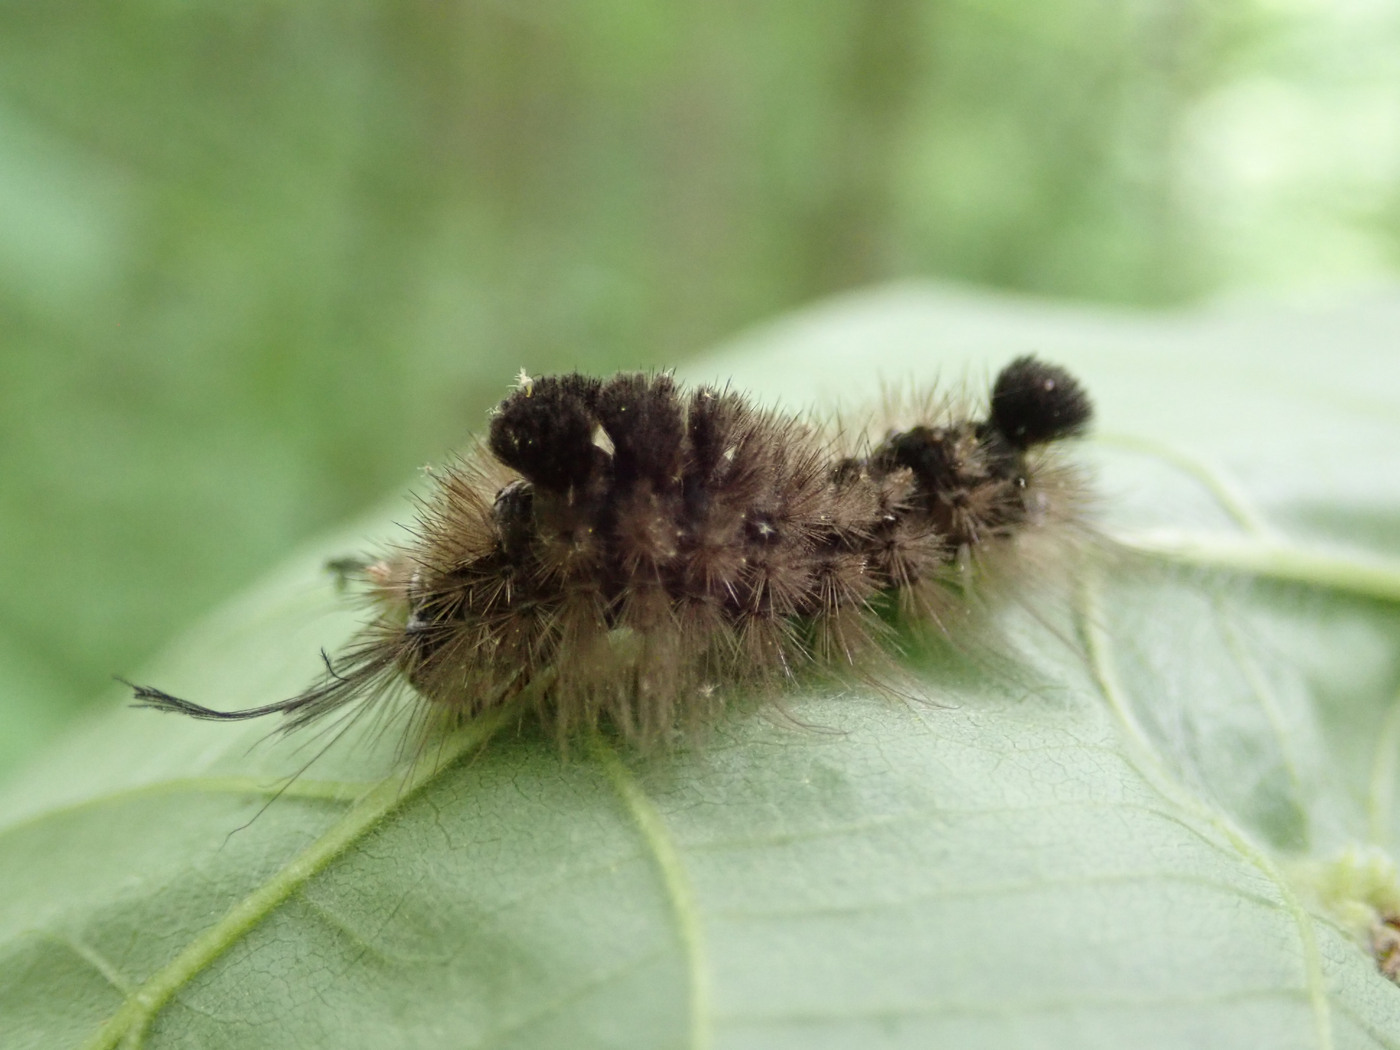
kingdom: Animalia
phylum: Arthropoda
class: Insecta
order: Lepidoptera
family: Erebidae
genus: Dasychira
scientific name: Dasychira obliquata
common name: Streaked tussock moth
